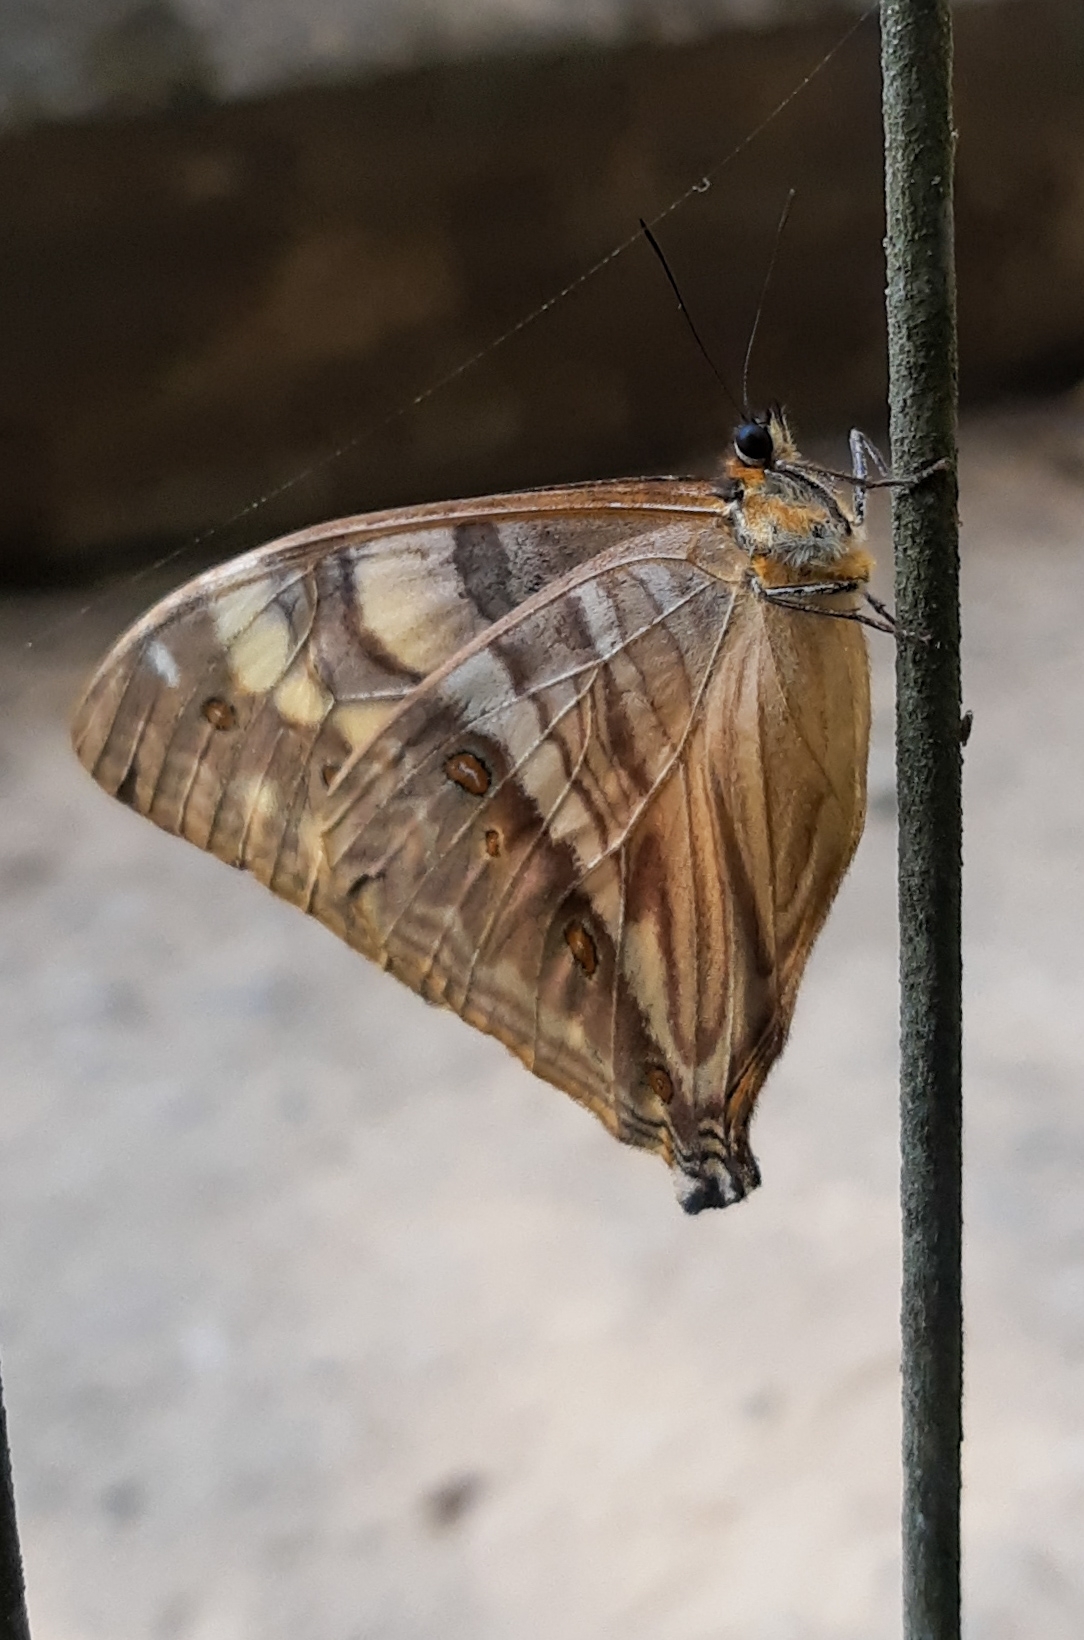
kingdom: Animalia
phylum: Arthropoda
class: Insecta
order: Lepidoptera
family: Nymphalidae
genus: Morpho
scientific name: Morpho aega
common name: Aega morpho
